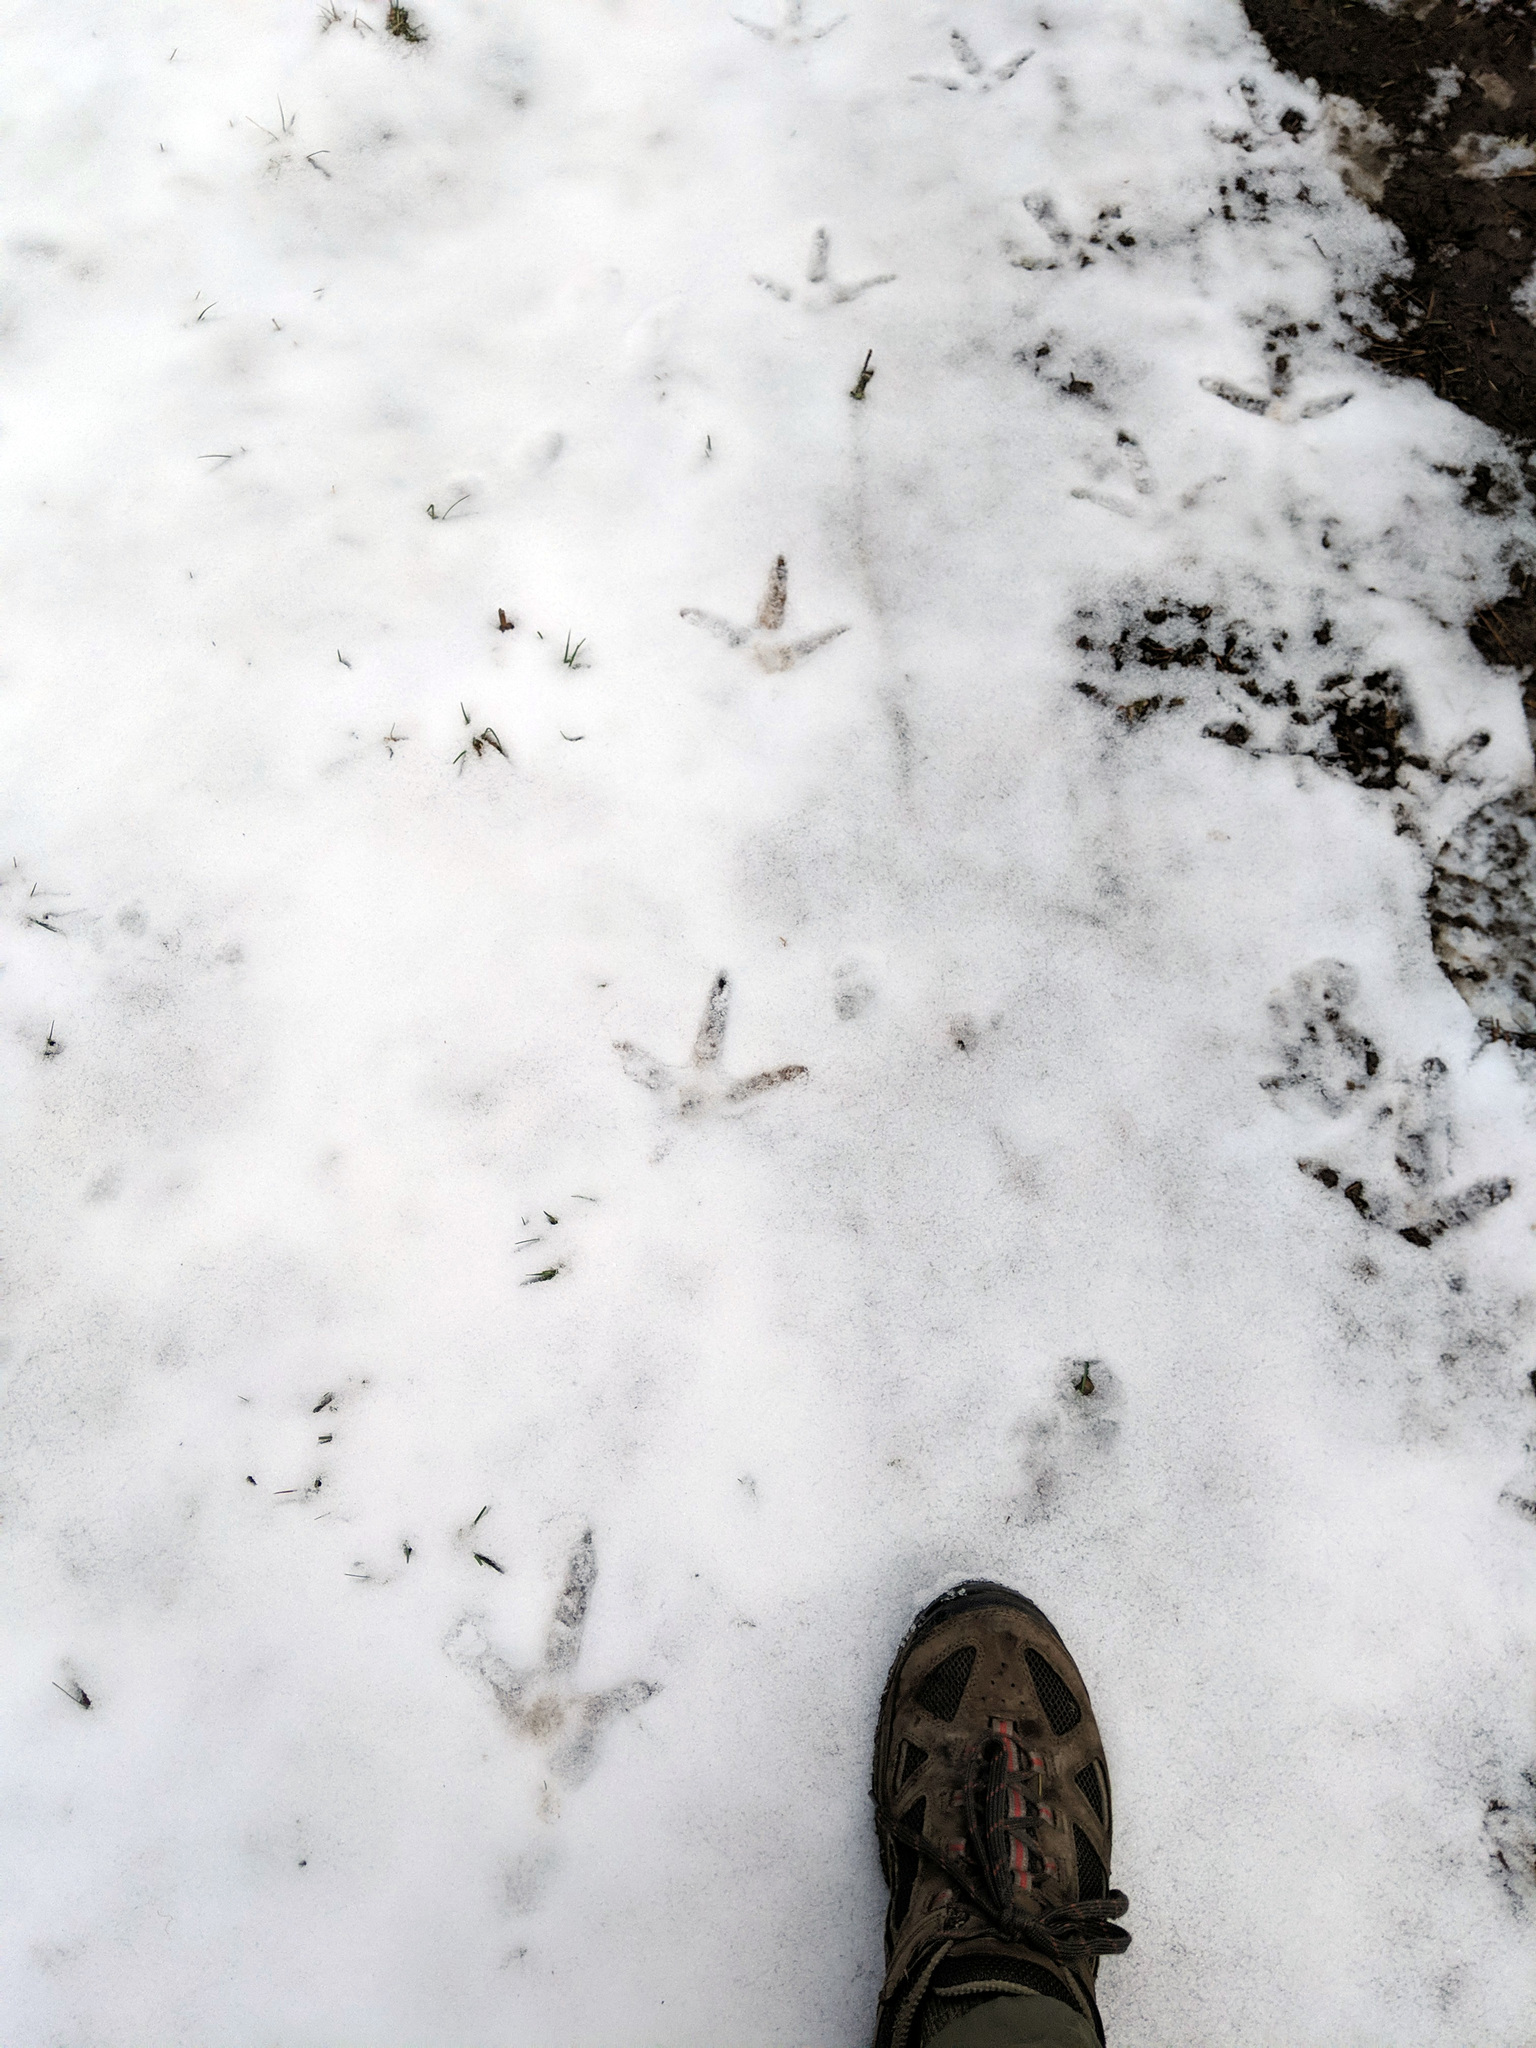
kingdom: Animalia
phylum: Chordata
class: Aves
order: Galliformes
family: Phasianidae
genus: Meleagris
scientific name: Meleagris gallopavo
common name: Wild turkey
